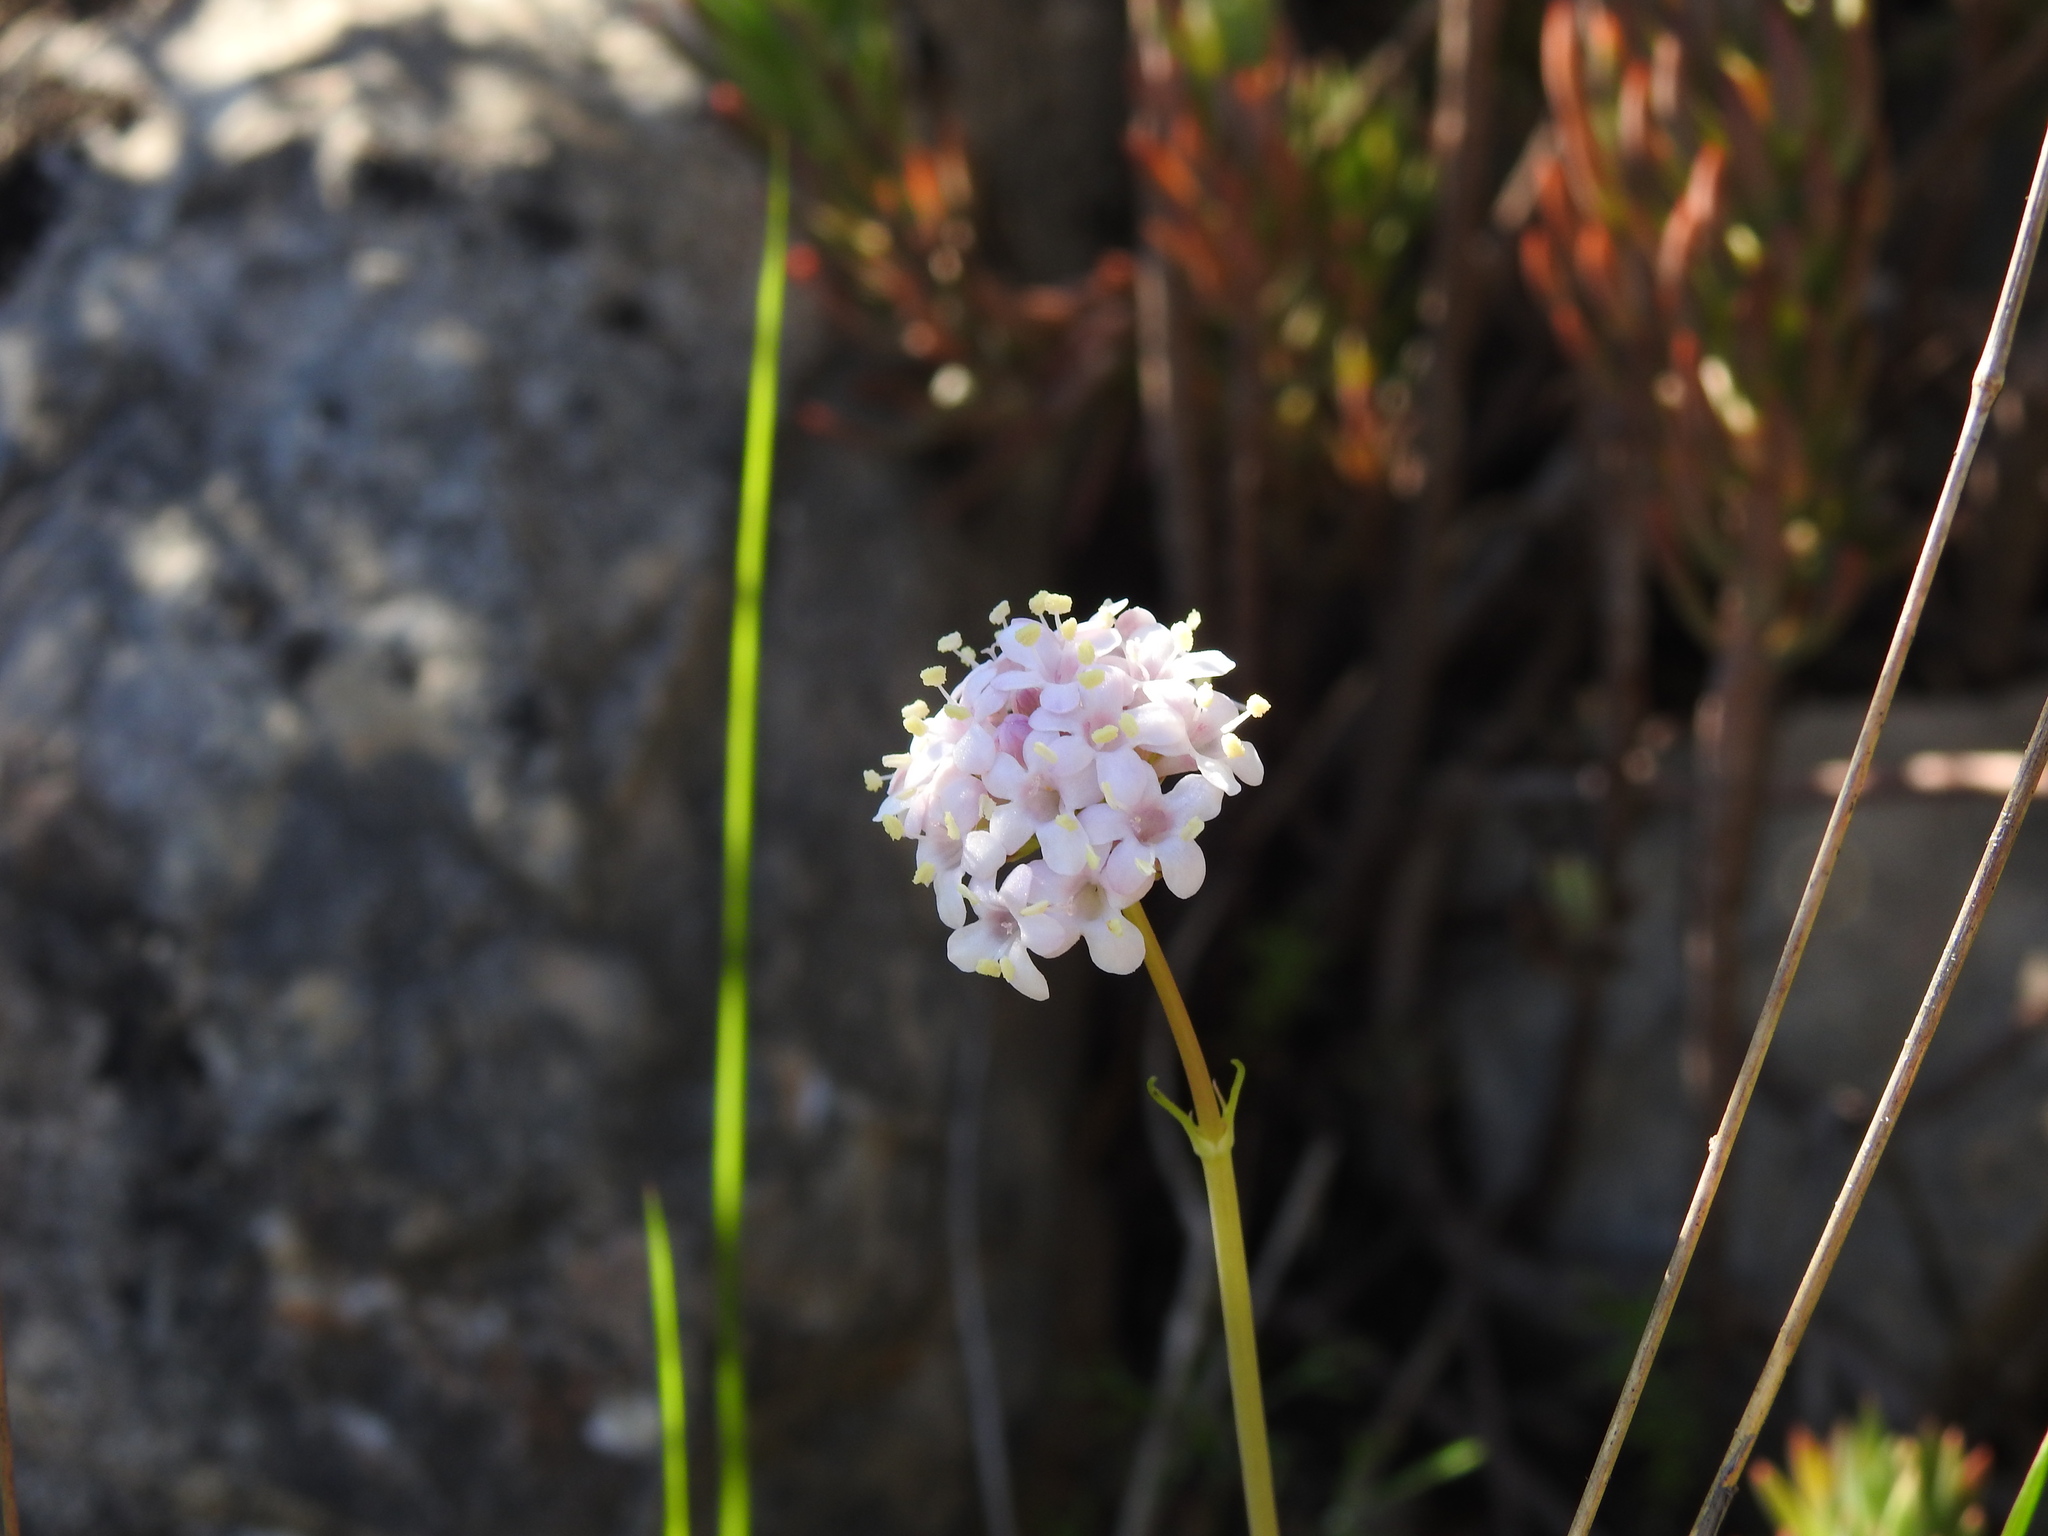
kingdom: Plantae
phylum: Tracheophyta
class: Magnoliopsida
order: Dipsacales
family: Caprifoliaceae
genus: Valeriana
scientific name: Valeriana tuberosa
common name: Tuberous valerian
